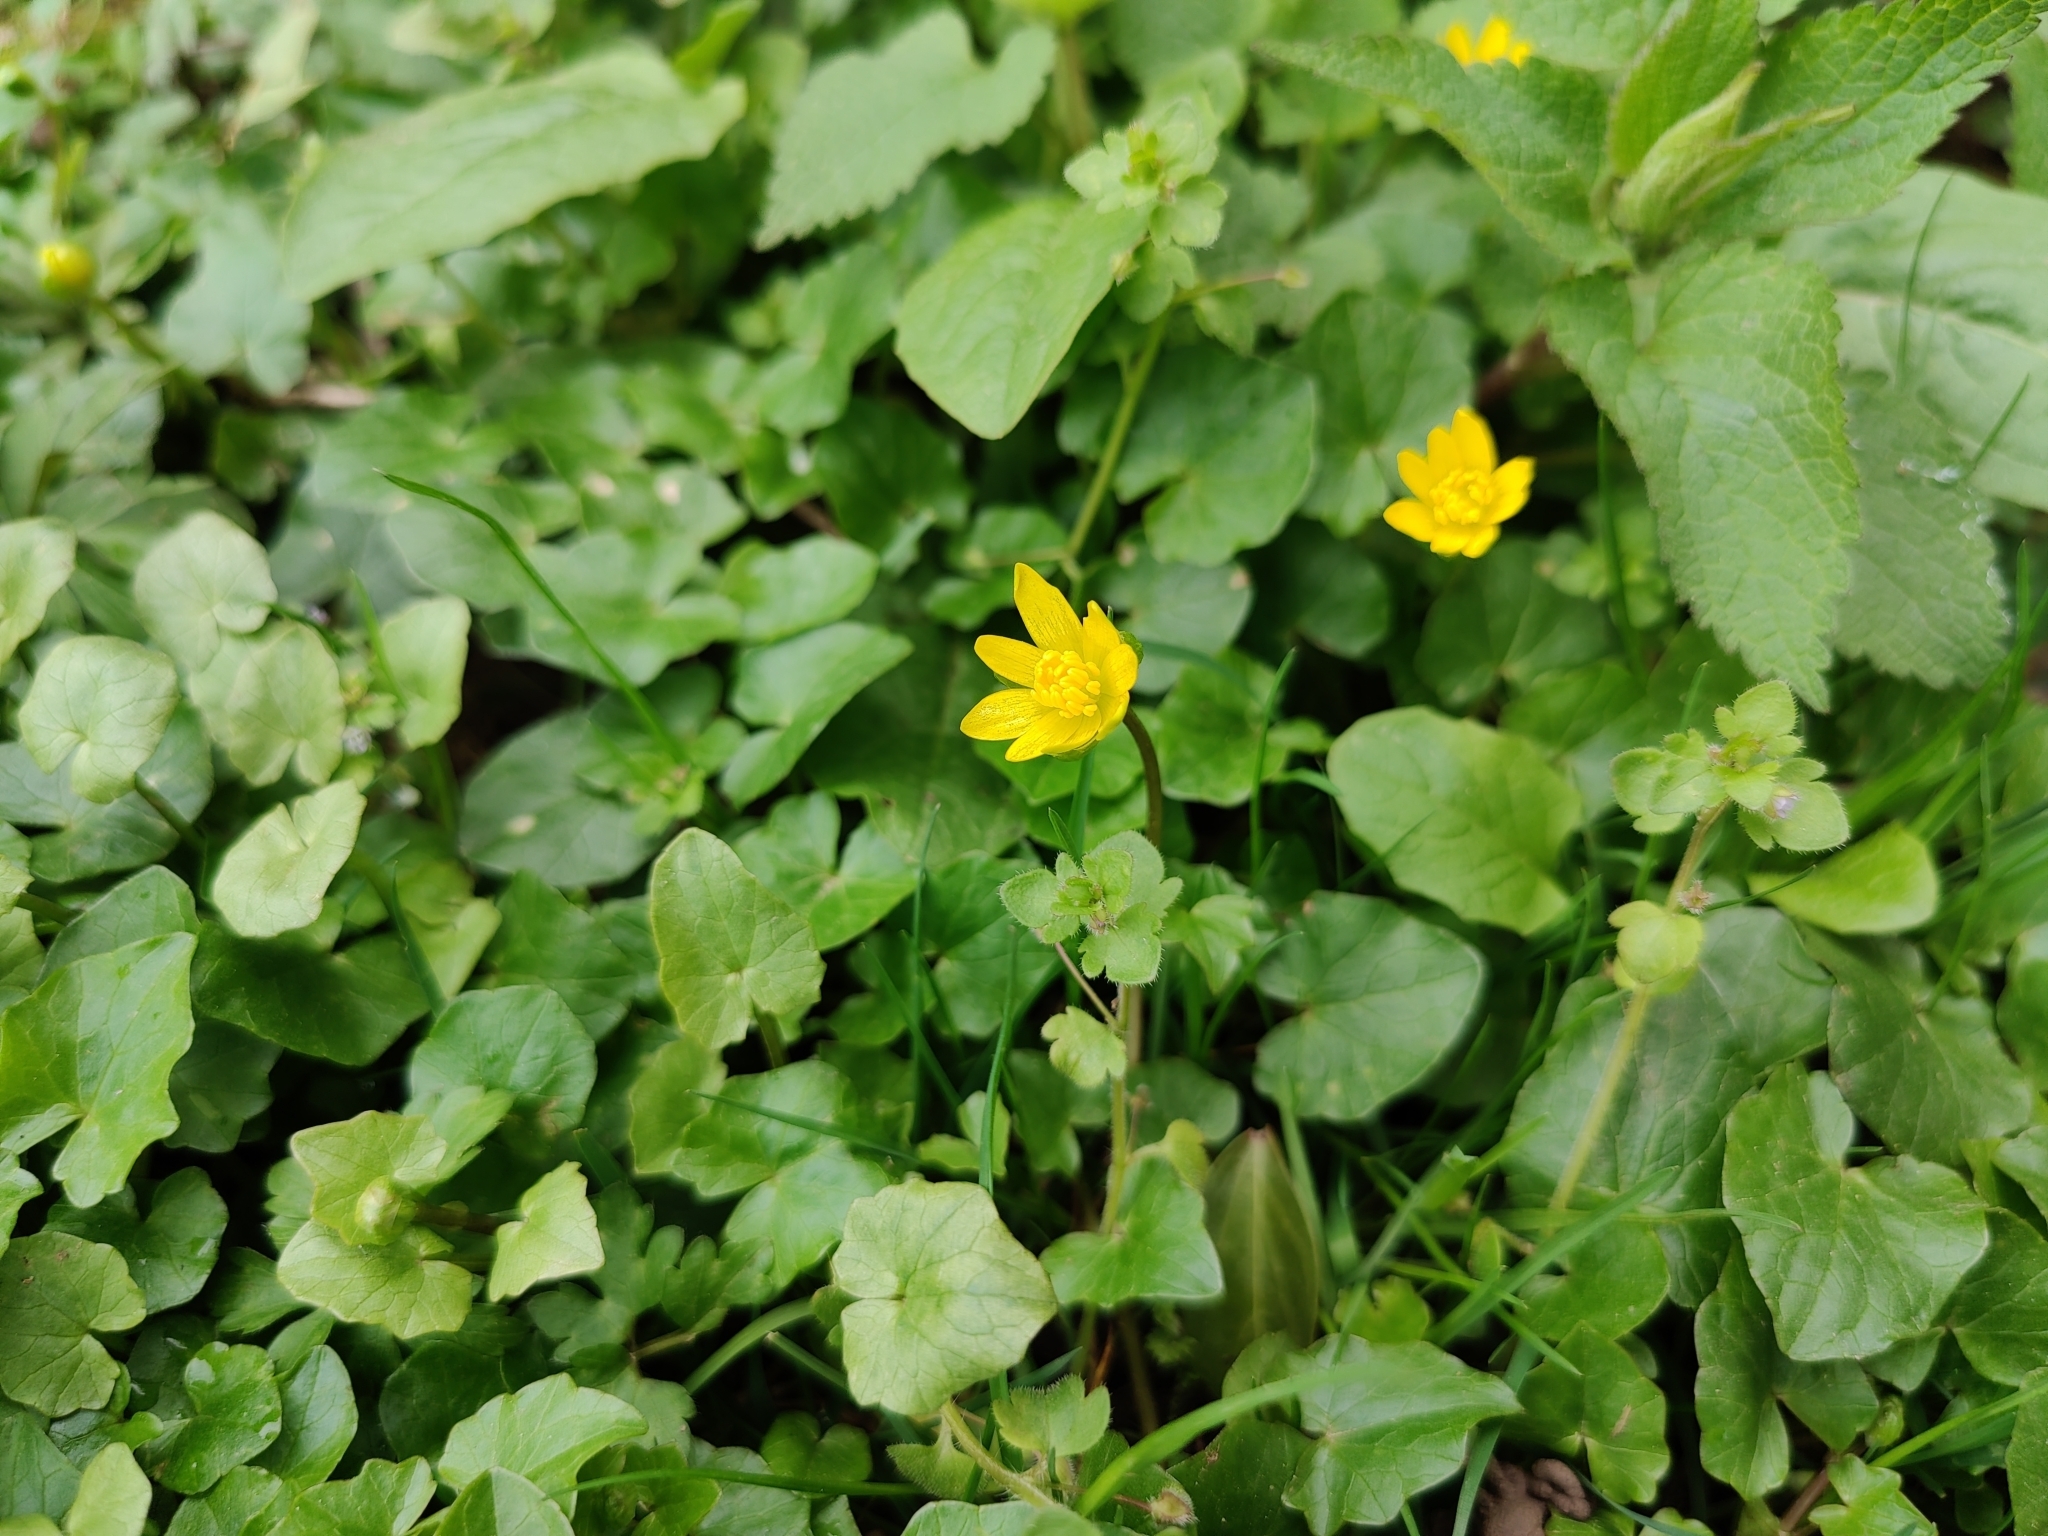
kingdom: Plantae
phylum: Tracheophyta
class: Magnoliopsida
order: Ranunculales
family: Ranunculaceae
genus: Ficaria
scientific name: Ficaria verna
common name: Lesser celandine
